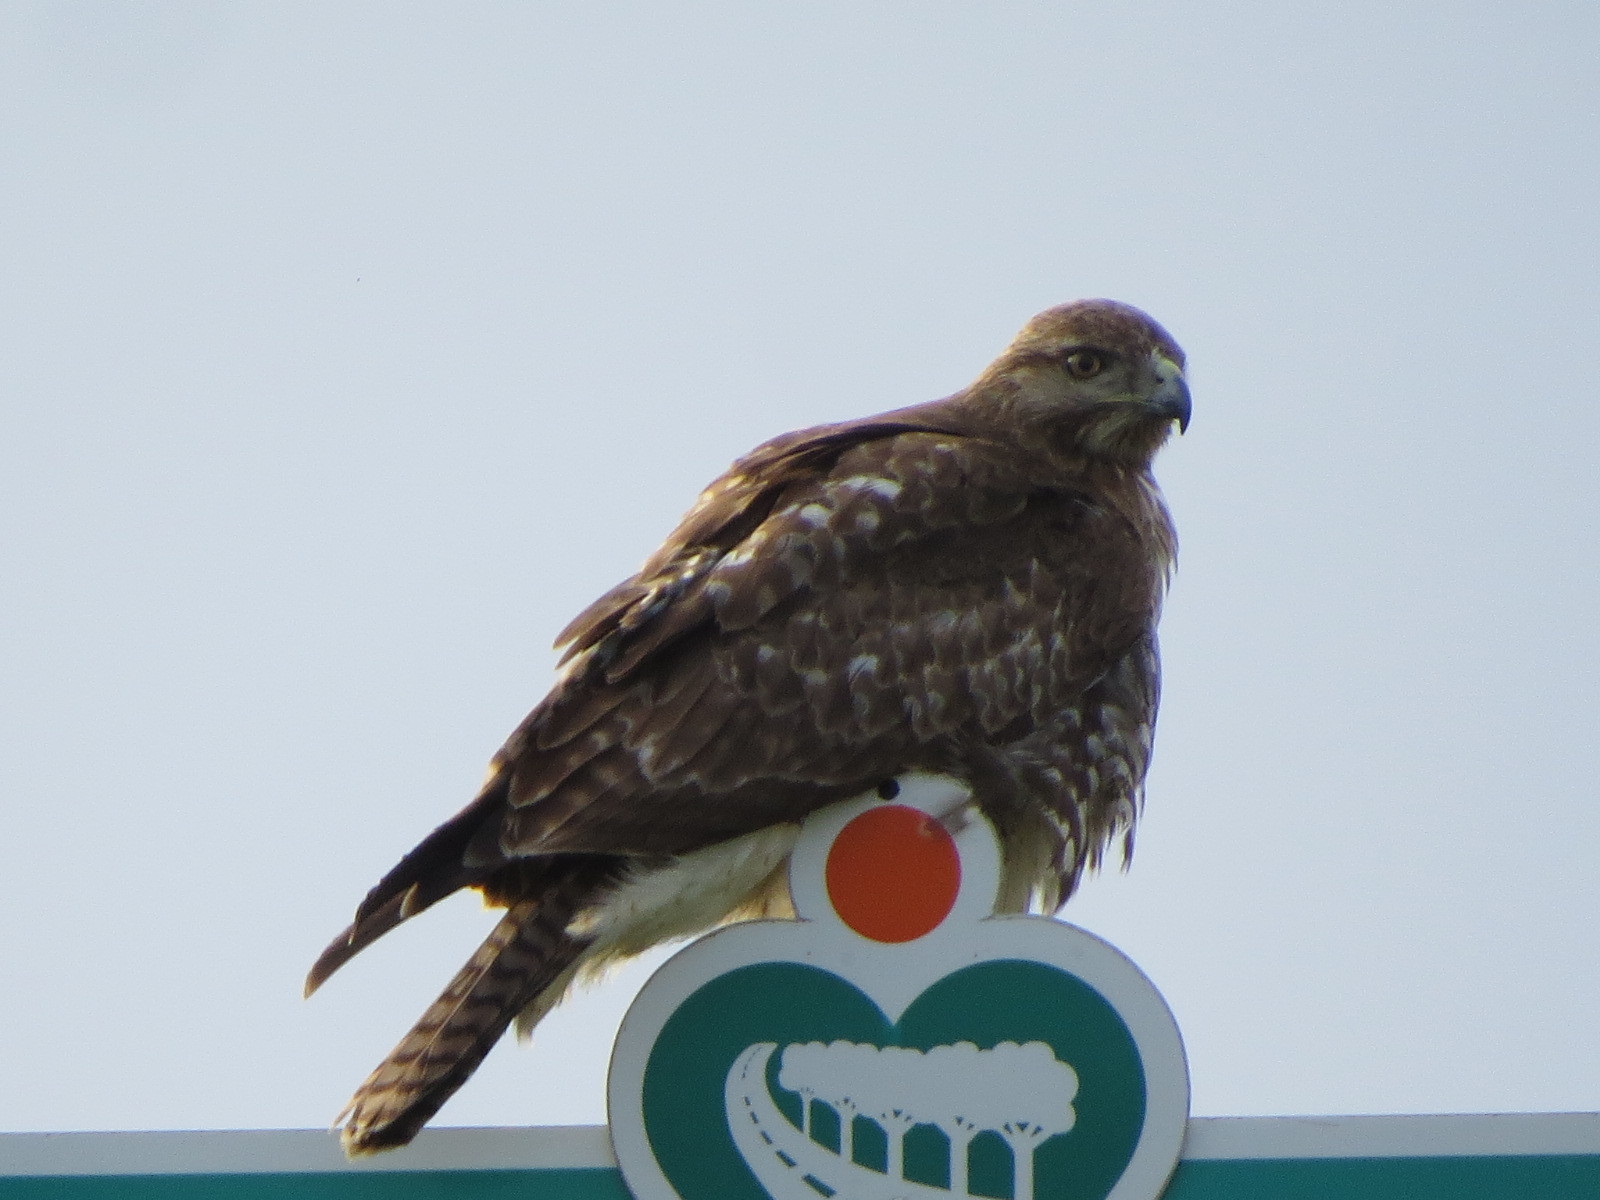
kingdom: Animalia
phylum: Chordata
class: Aves
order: Accipitriformes
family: Accipitridae
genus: Buteo
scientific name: Buteo jamaicensis
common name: Red-tailed hawk
